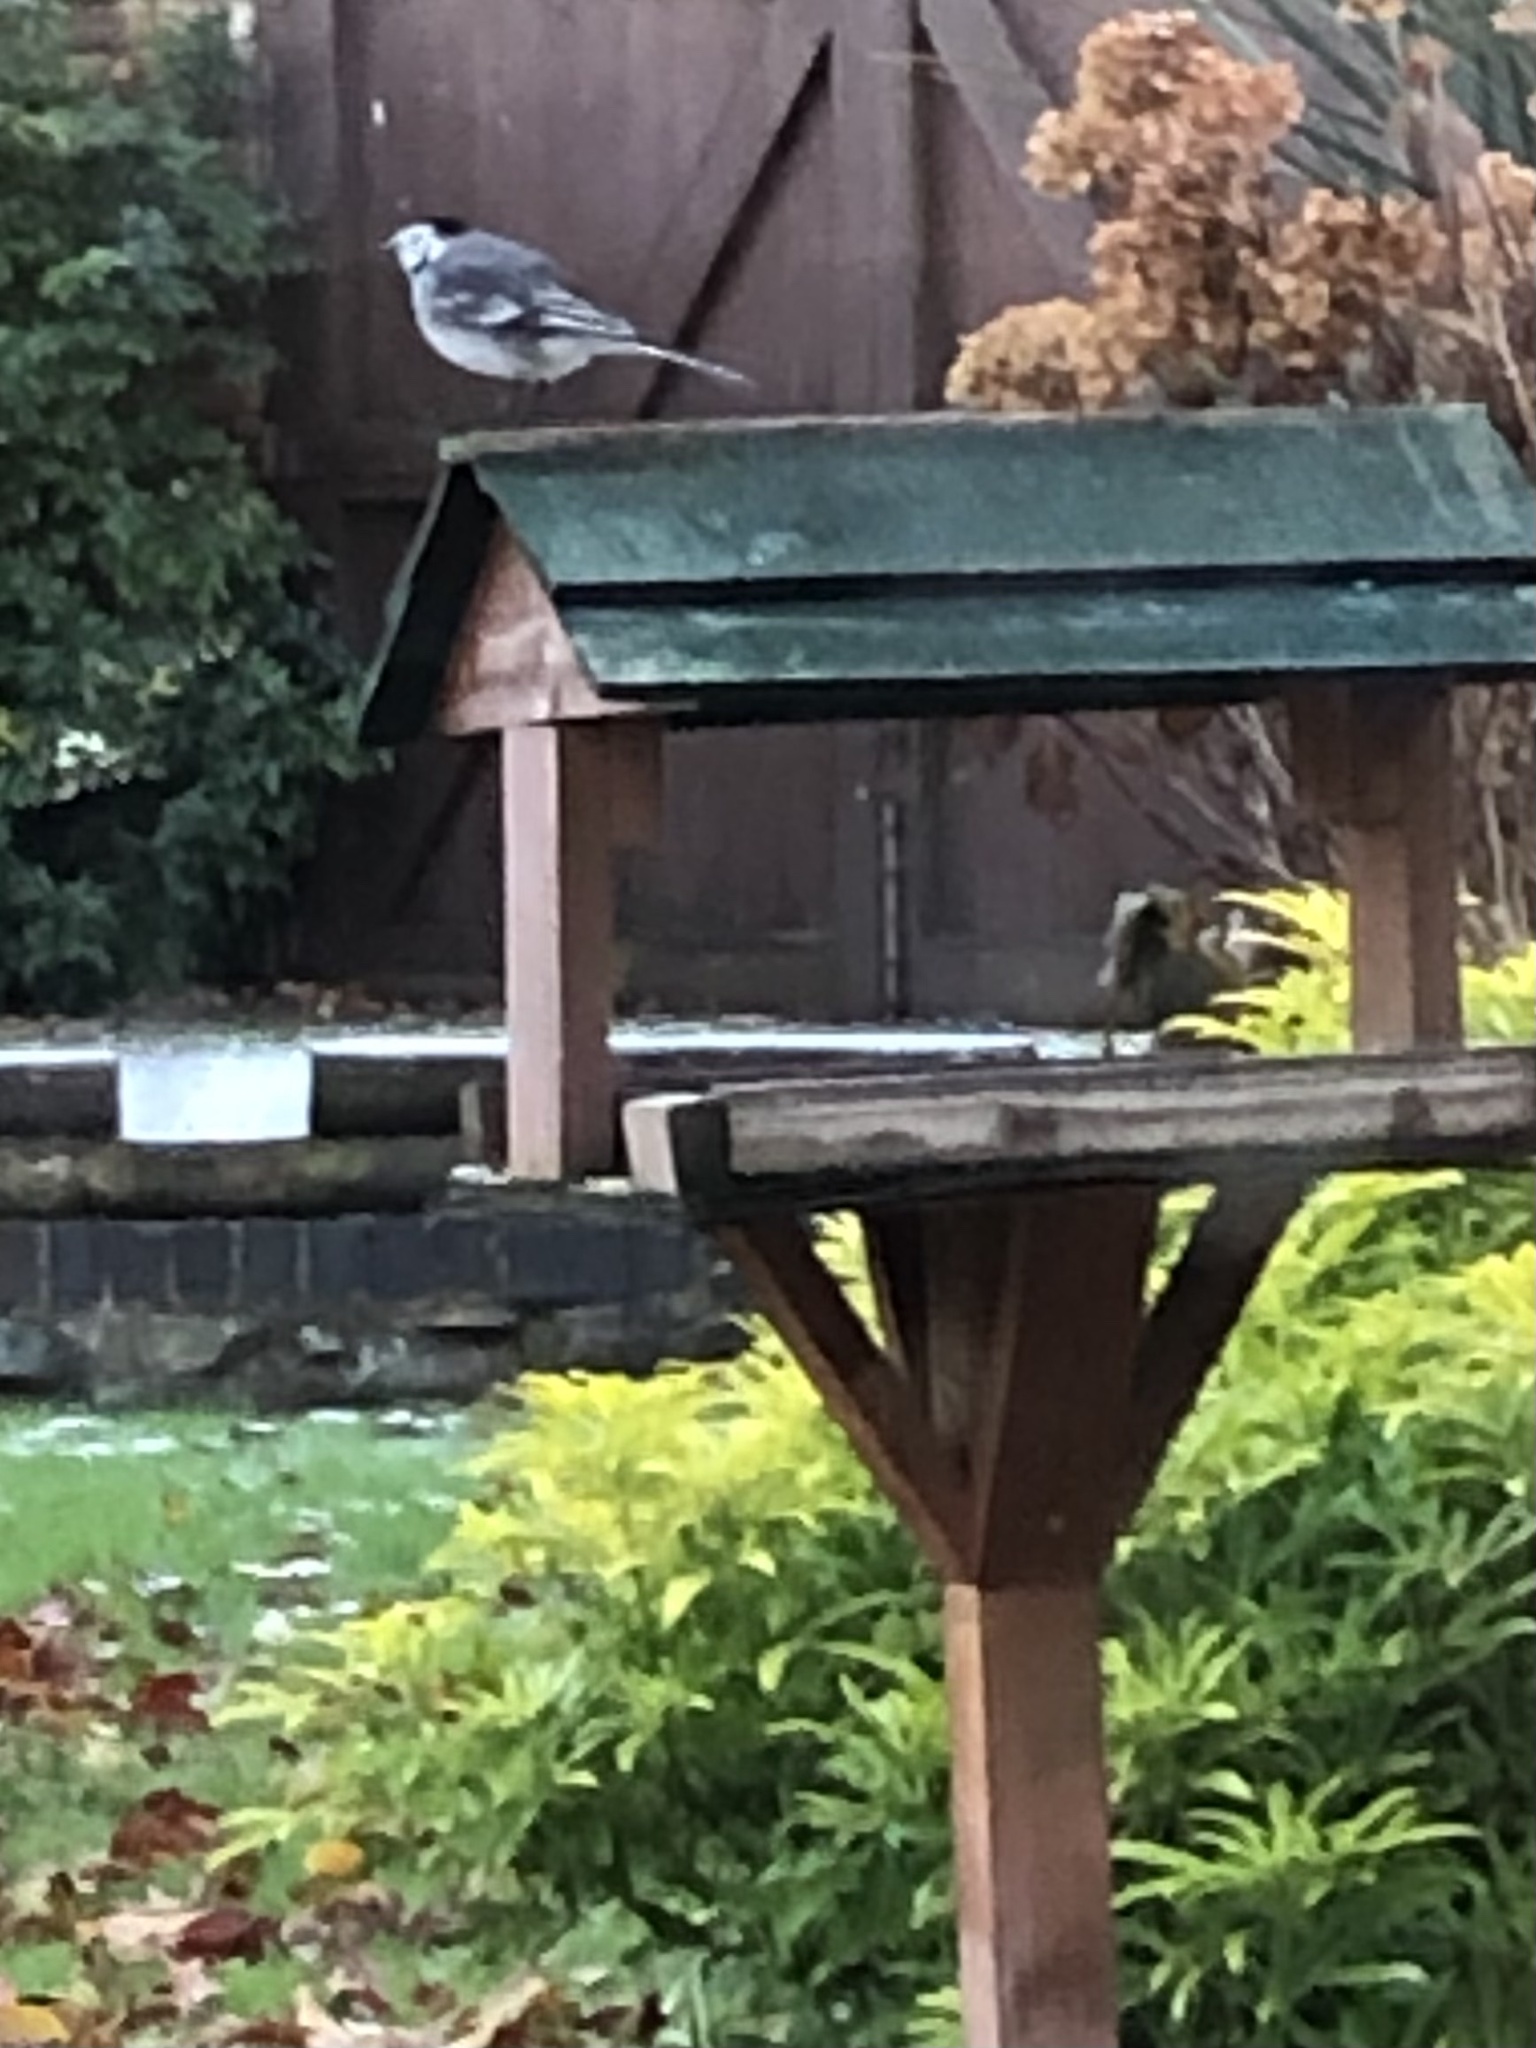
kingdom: Animalia
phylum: Chordata
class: Aves
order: Passeriformes
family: Motacillidae
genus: Motacilla
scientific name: Motacilla alba
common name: White wagtail
